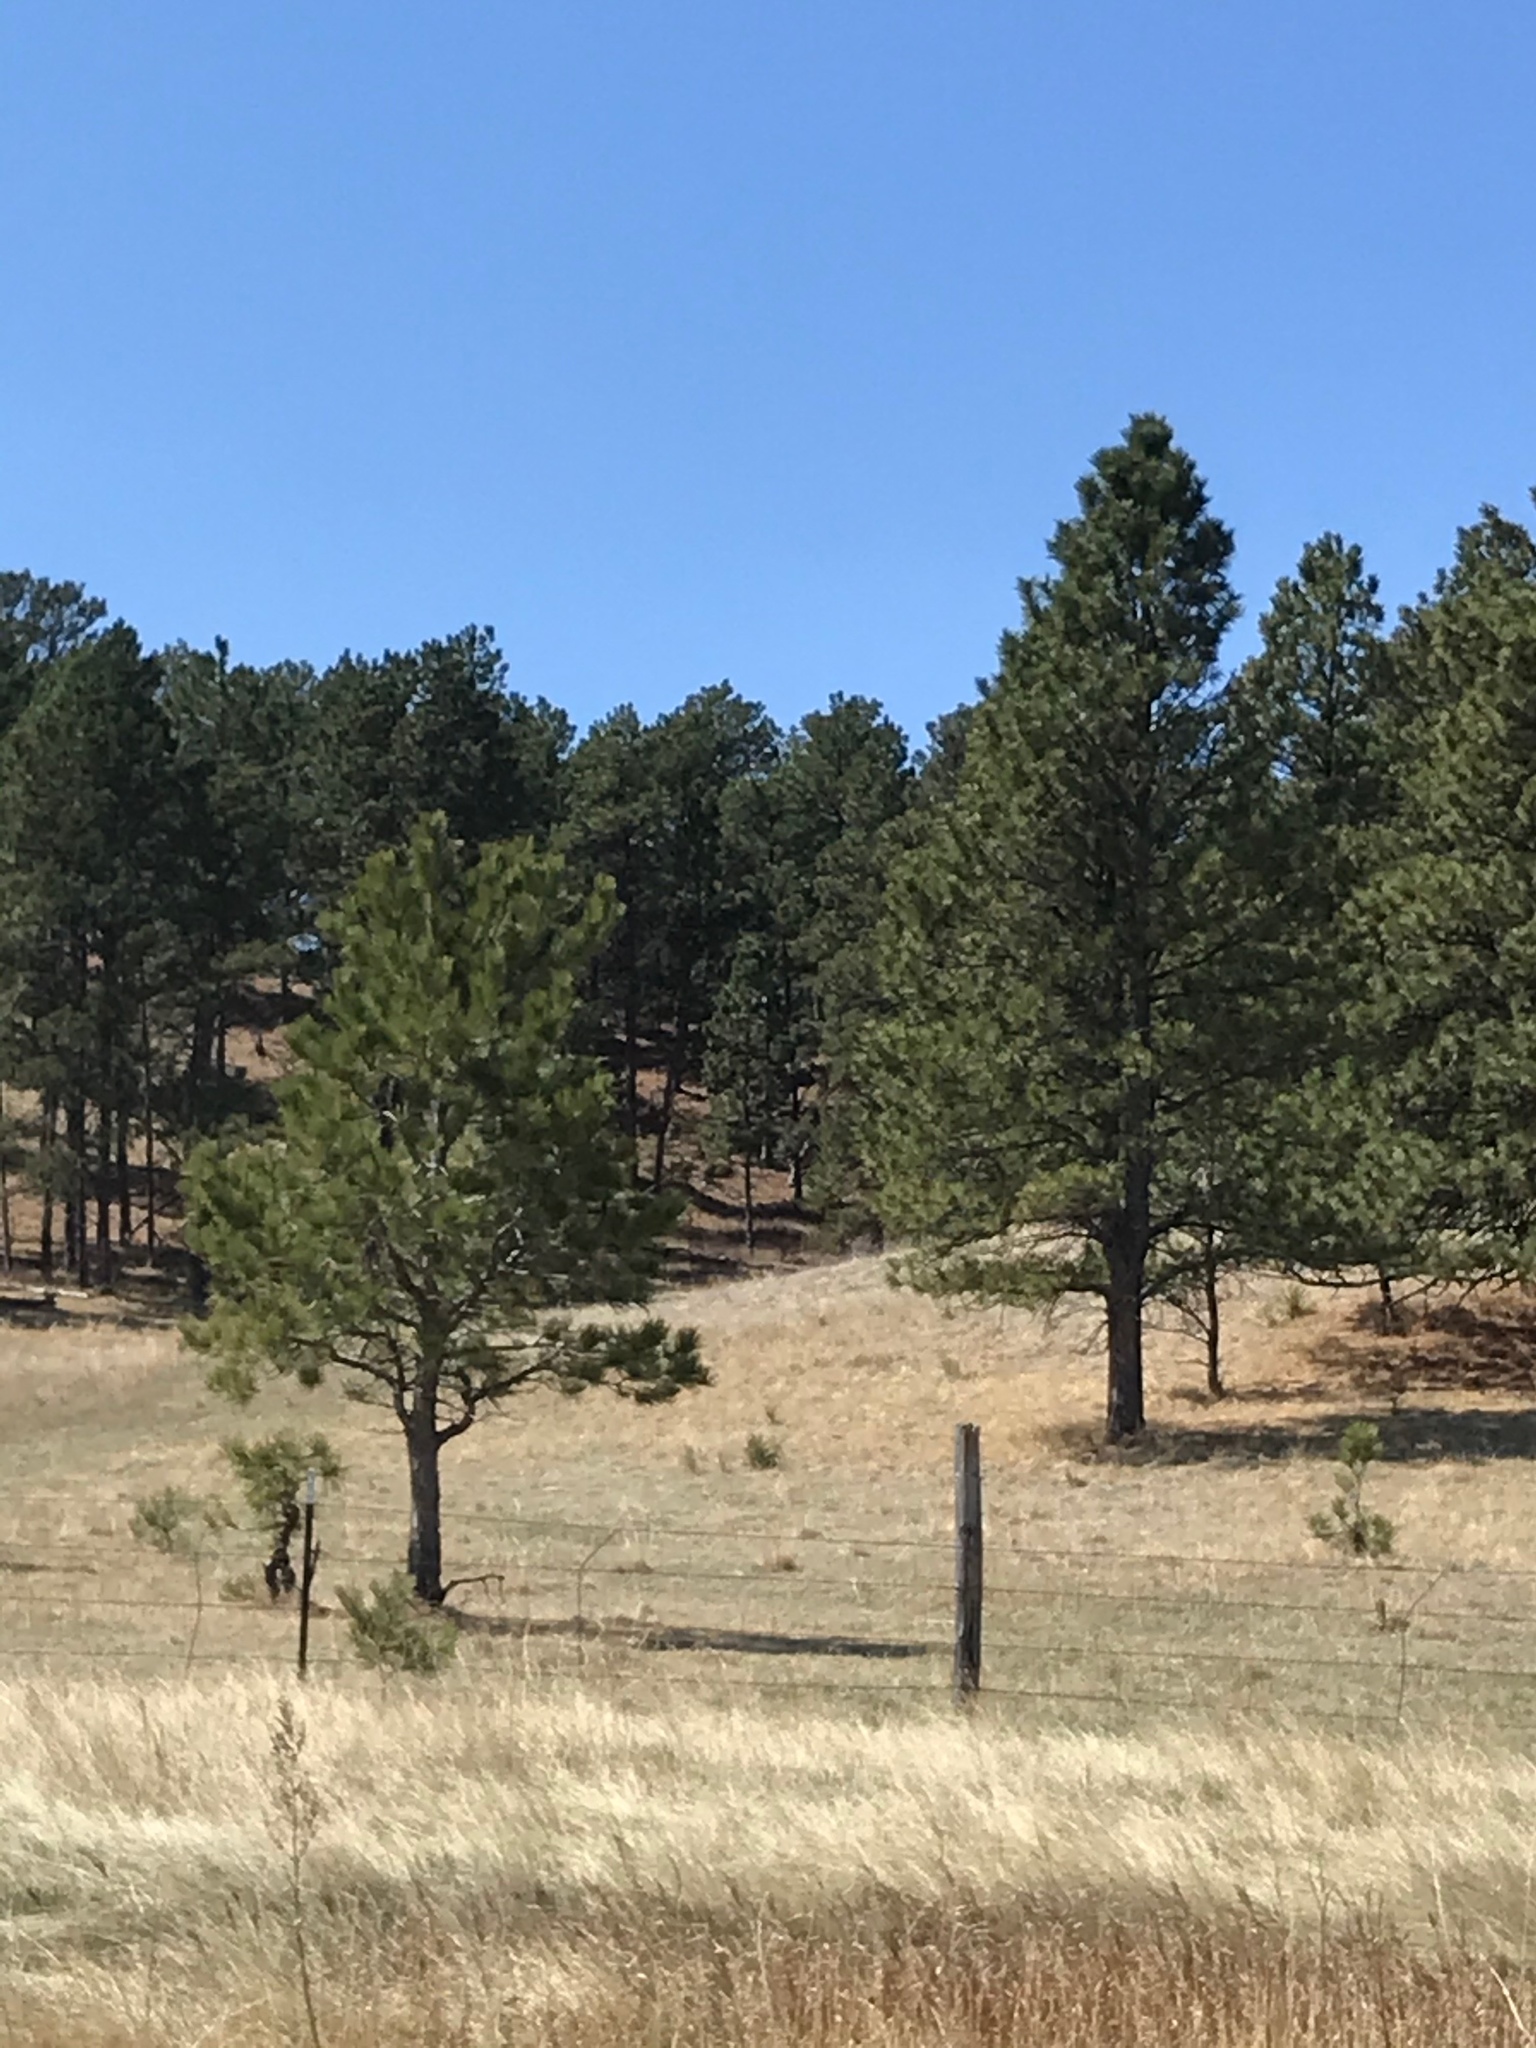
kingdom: Plantae
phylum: Tracheophyta
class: Pinopsida
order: Pinales
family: Pinaceae
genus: Pinus
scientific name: Pinus ponderosa
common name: Western yellow-pine
